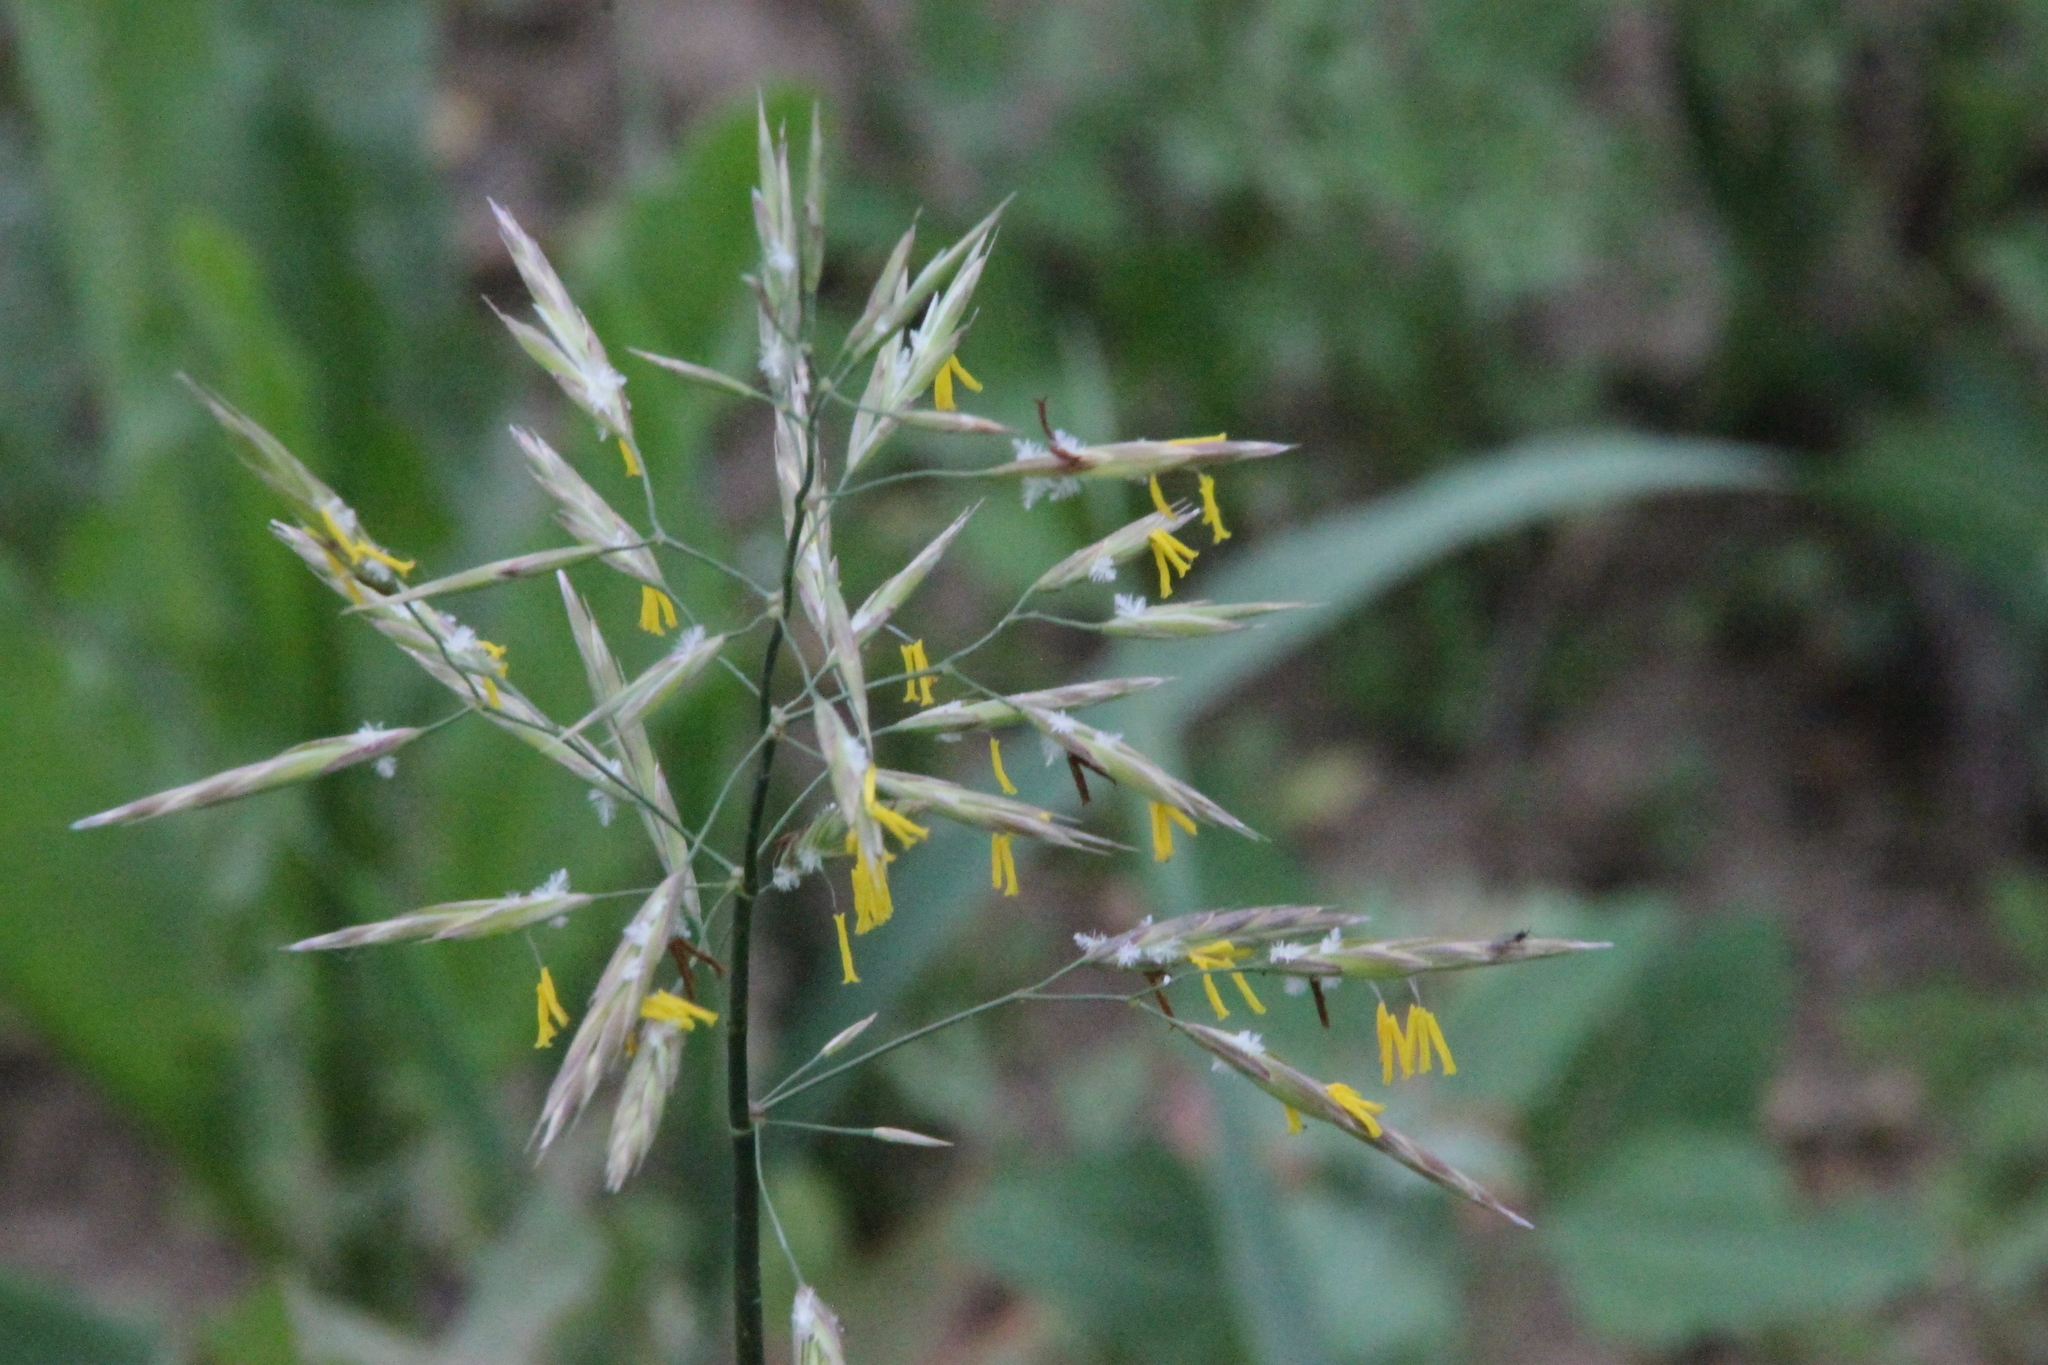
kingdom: Plantae
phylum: Tracheophyta
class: Liliopsida
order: Poales
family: Poaceae
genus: Bromus
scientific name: Bromus inermis
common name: Smooth brome
